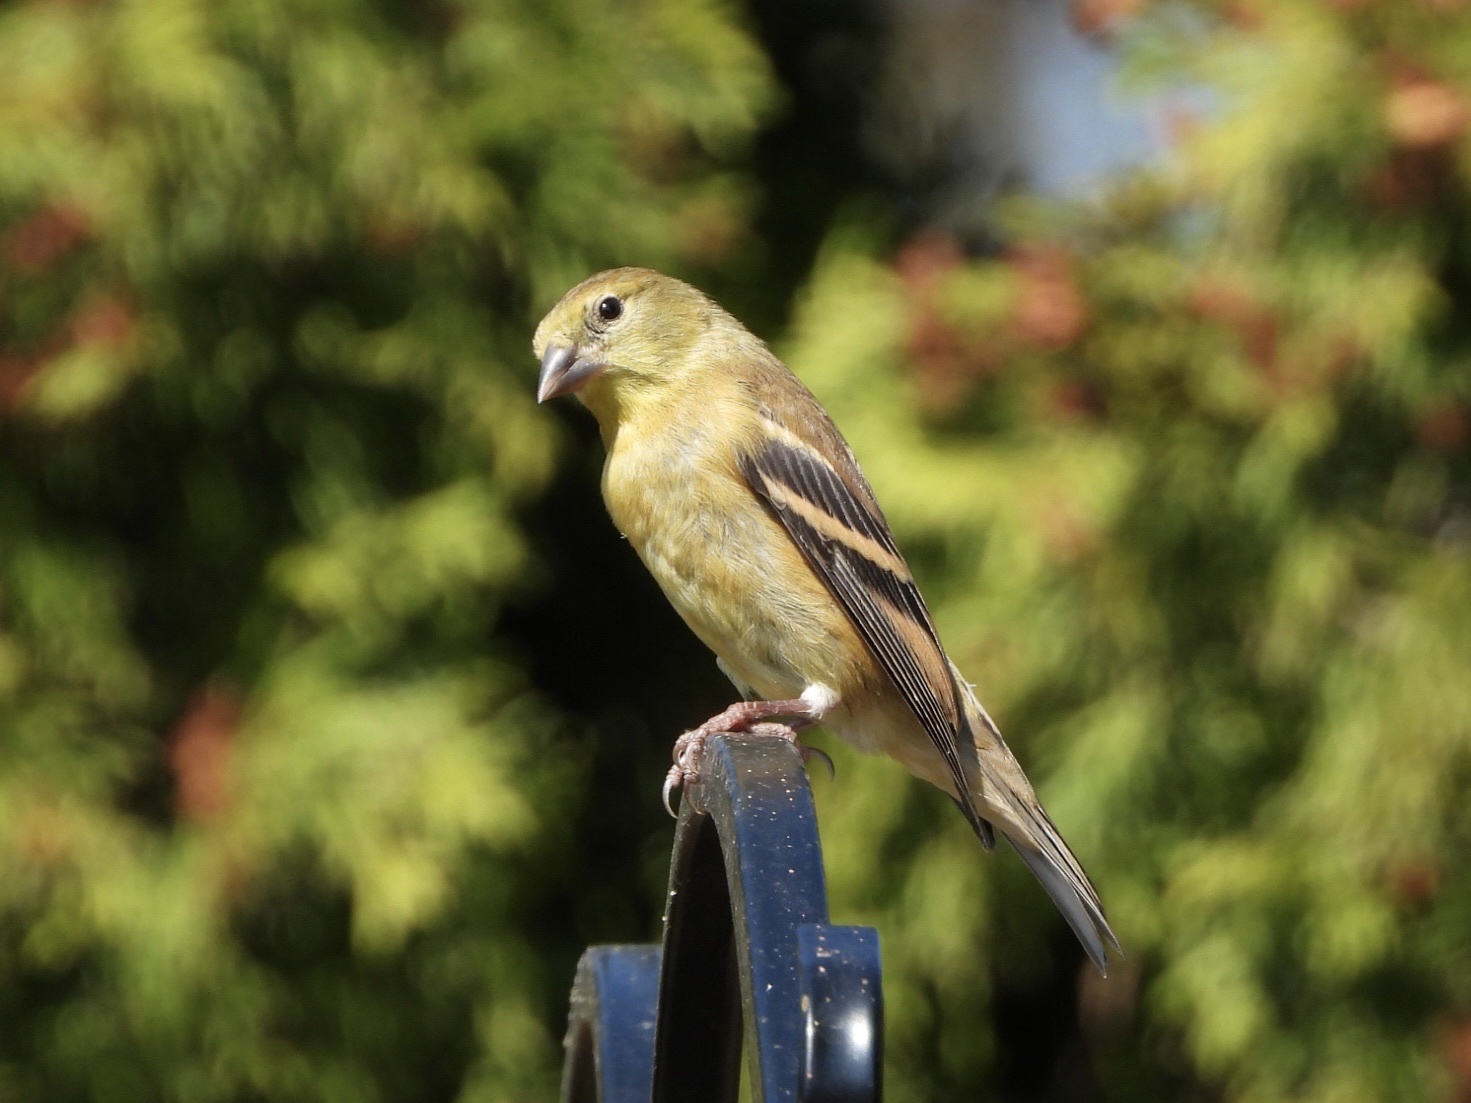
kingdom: Animalia
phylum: Chordata
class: Aves
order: Passeriformes
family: Fringillidae
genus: Spinus
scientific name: Spinus tristis
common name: American goldfinch
